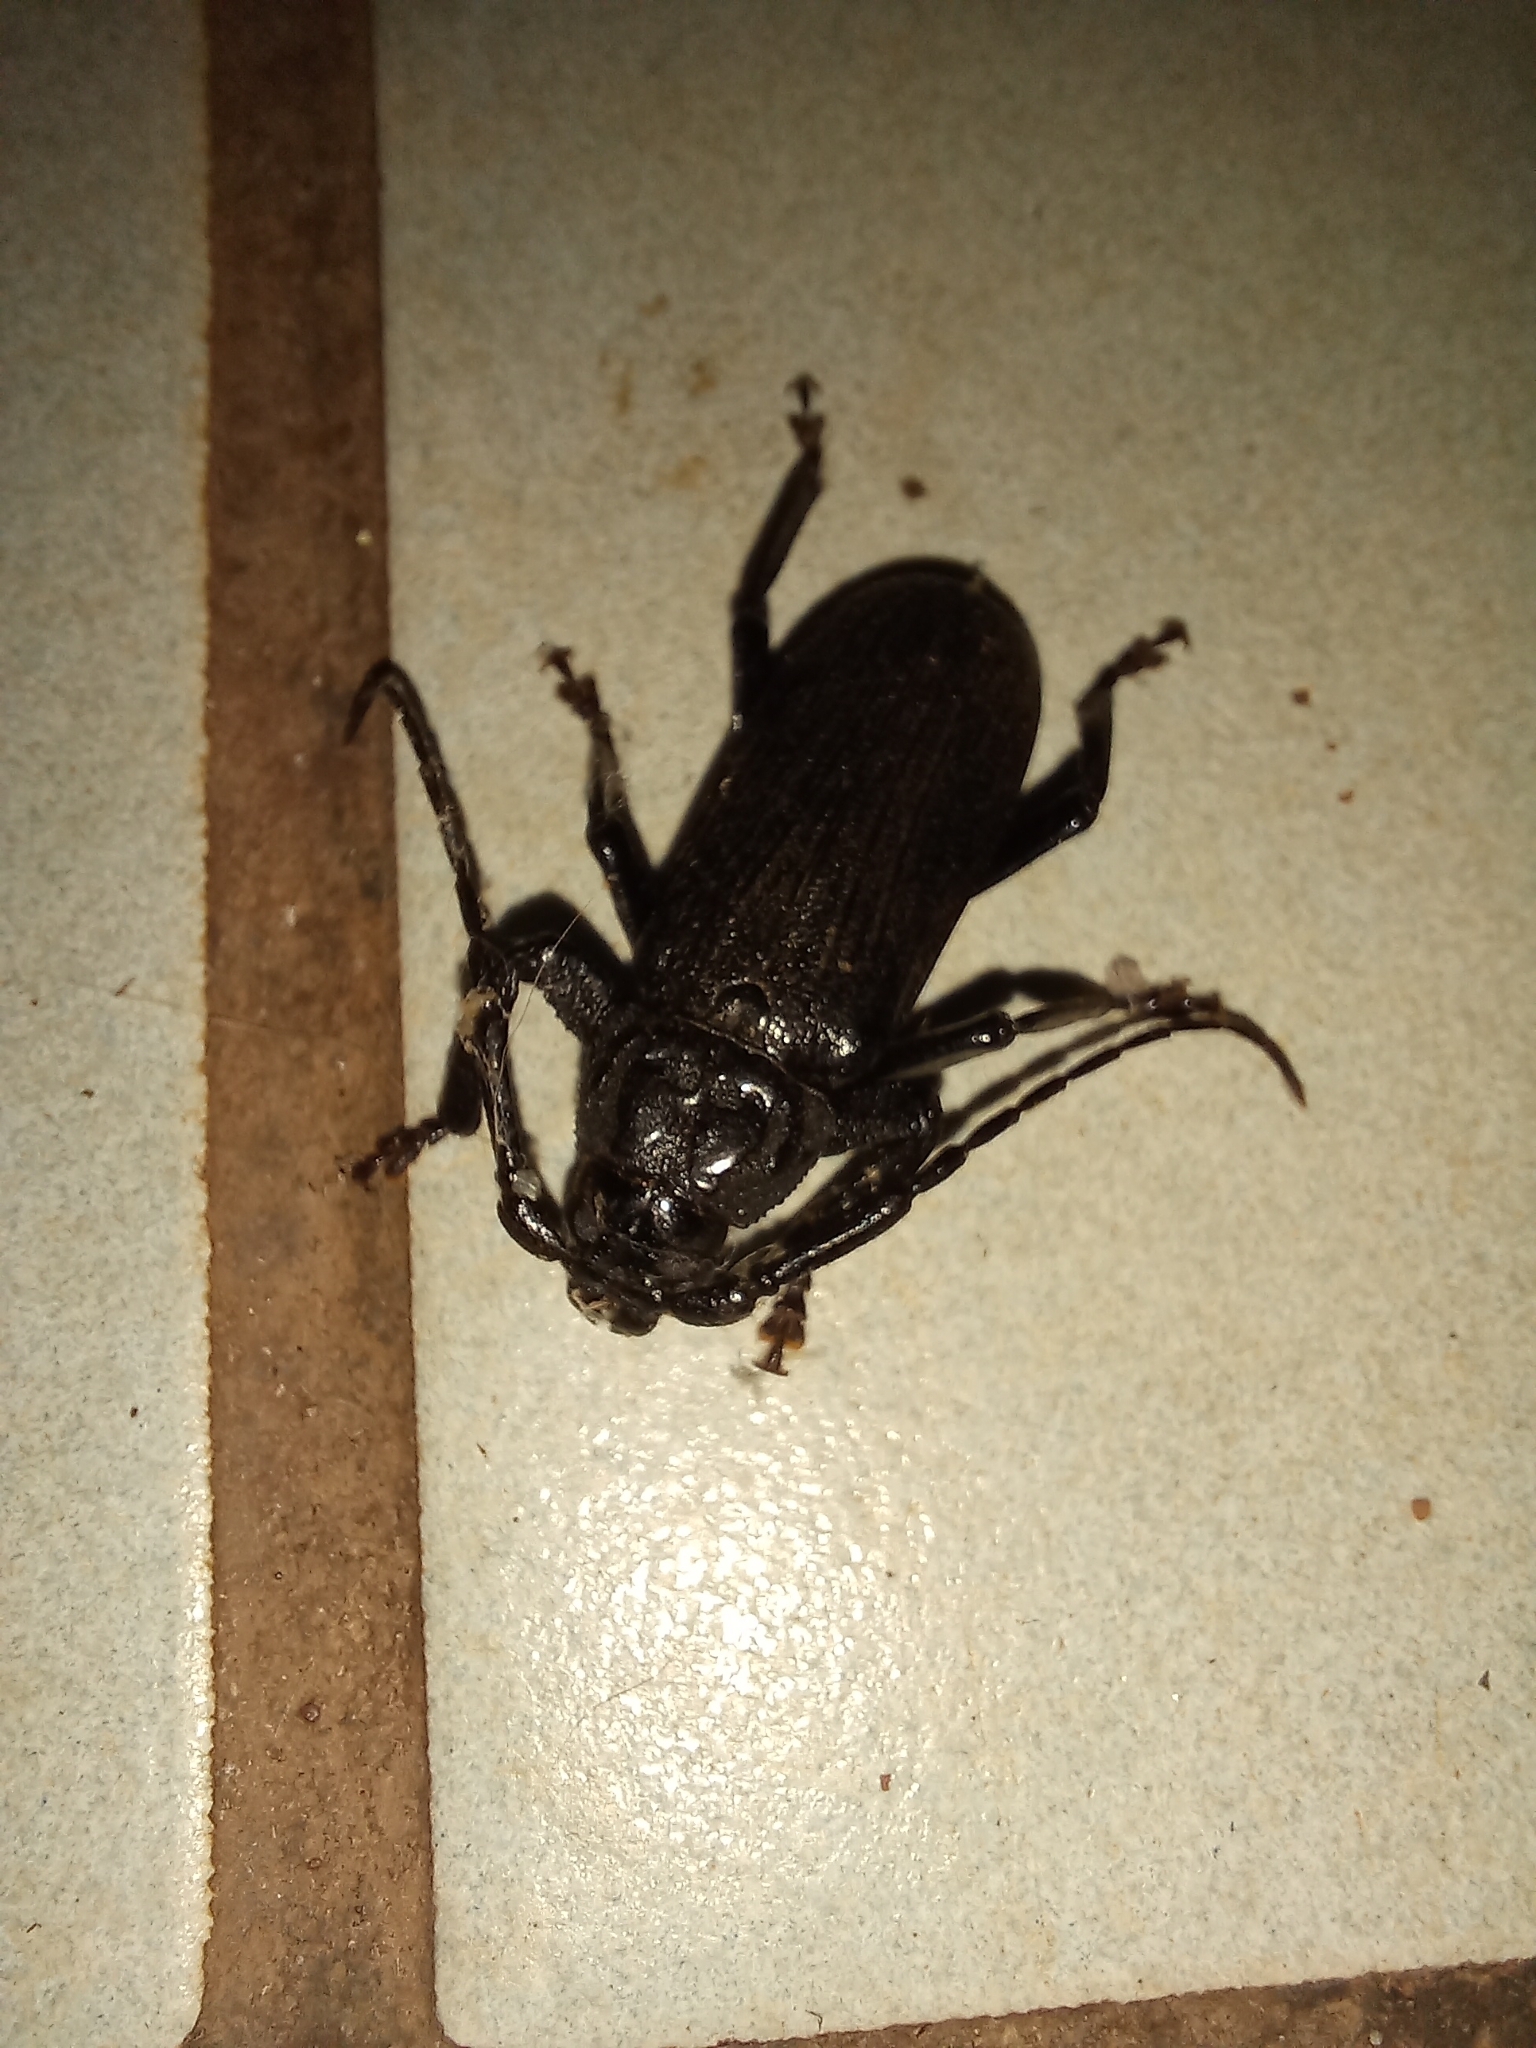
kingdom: Animalia
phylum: Arthropoda
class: Insecta
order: Coleoptera
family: Cerambycidae
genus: Aulacopus
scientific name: Aulacopus reticulatus
